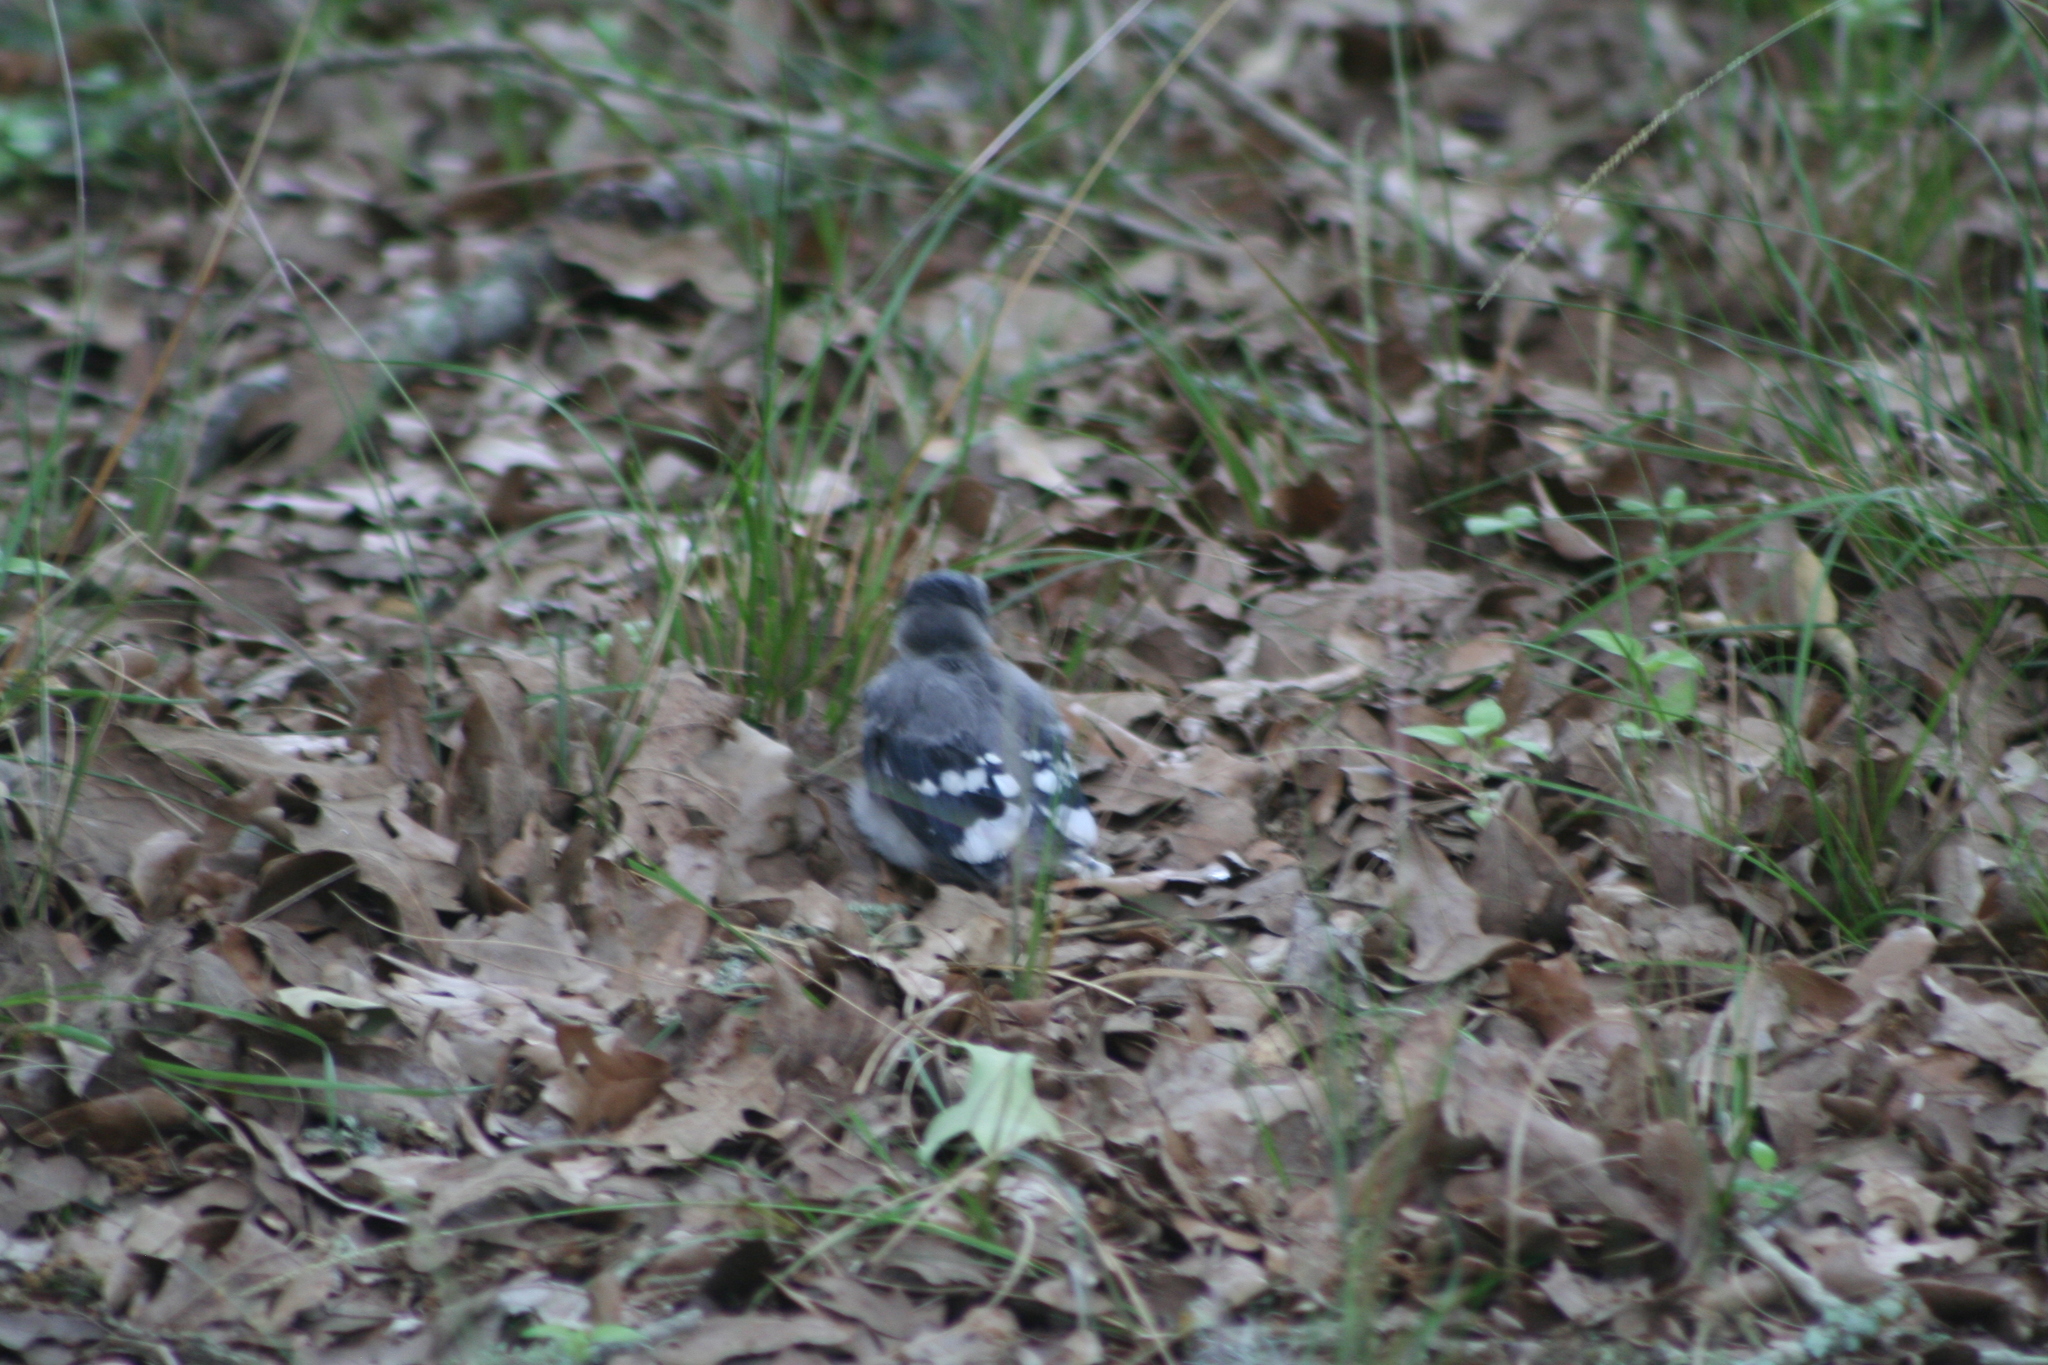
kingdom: Animalia
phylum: Chordata
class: Aves
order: Passeriformes
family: Corvidae
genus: Cyanocitta
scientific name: Cyanocitta cristata
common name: Blue jay
